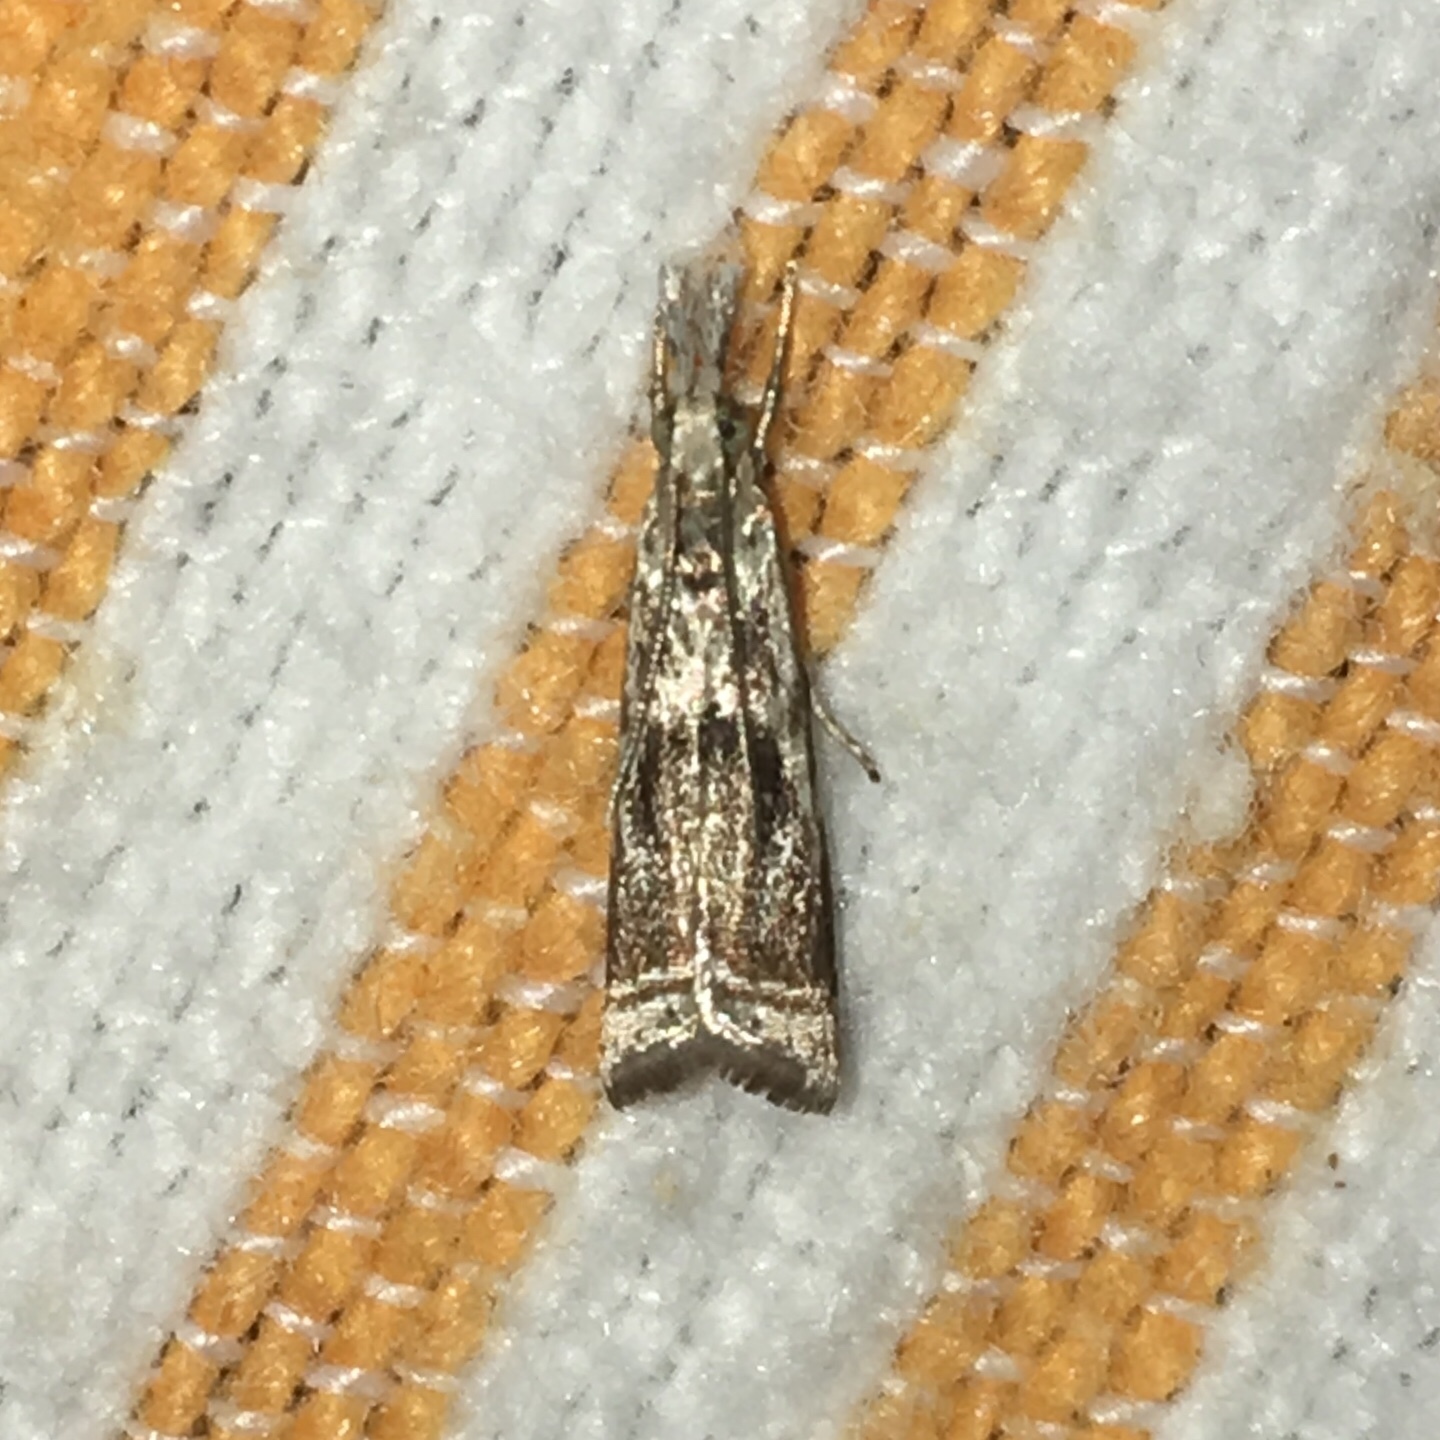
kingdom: Animalia
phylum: Arthropoda
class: Insecta
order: Lepidoptera
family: Crambidae
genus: Microcrambus
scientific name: Microcrambus elegans
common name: Elegant grass-veneer
